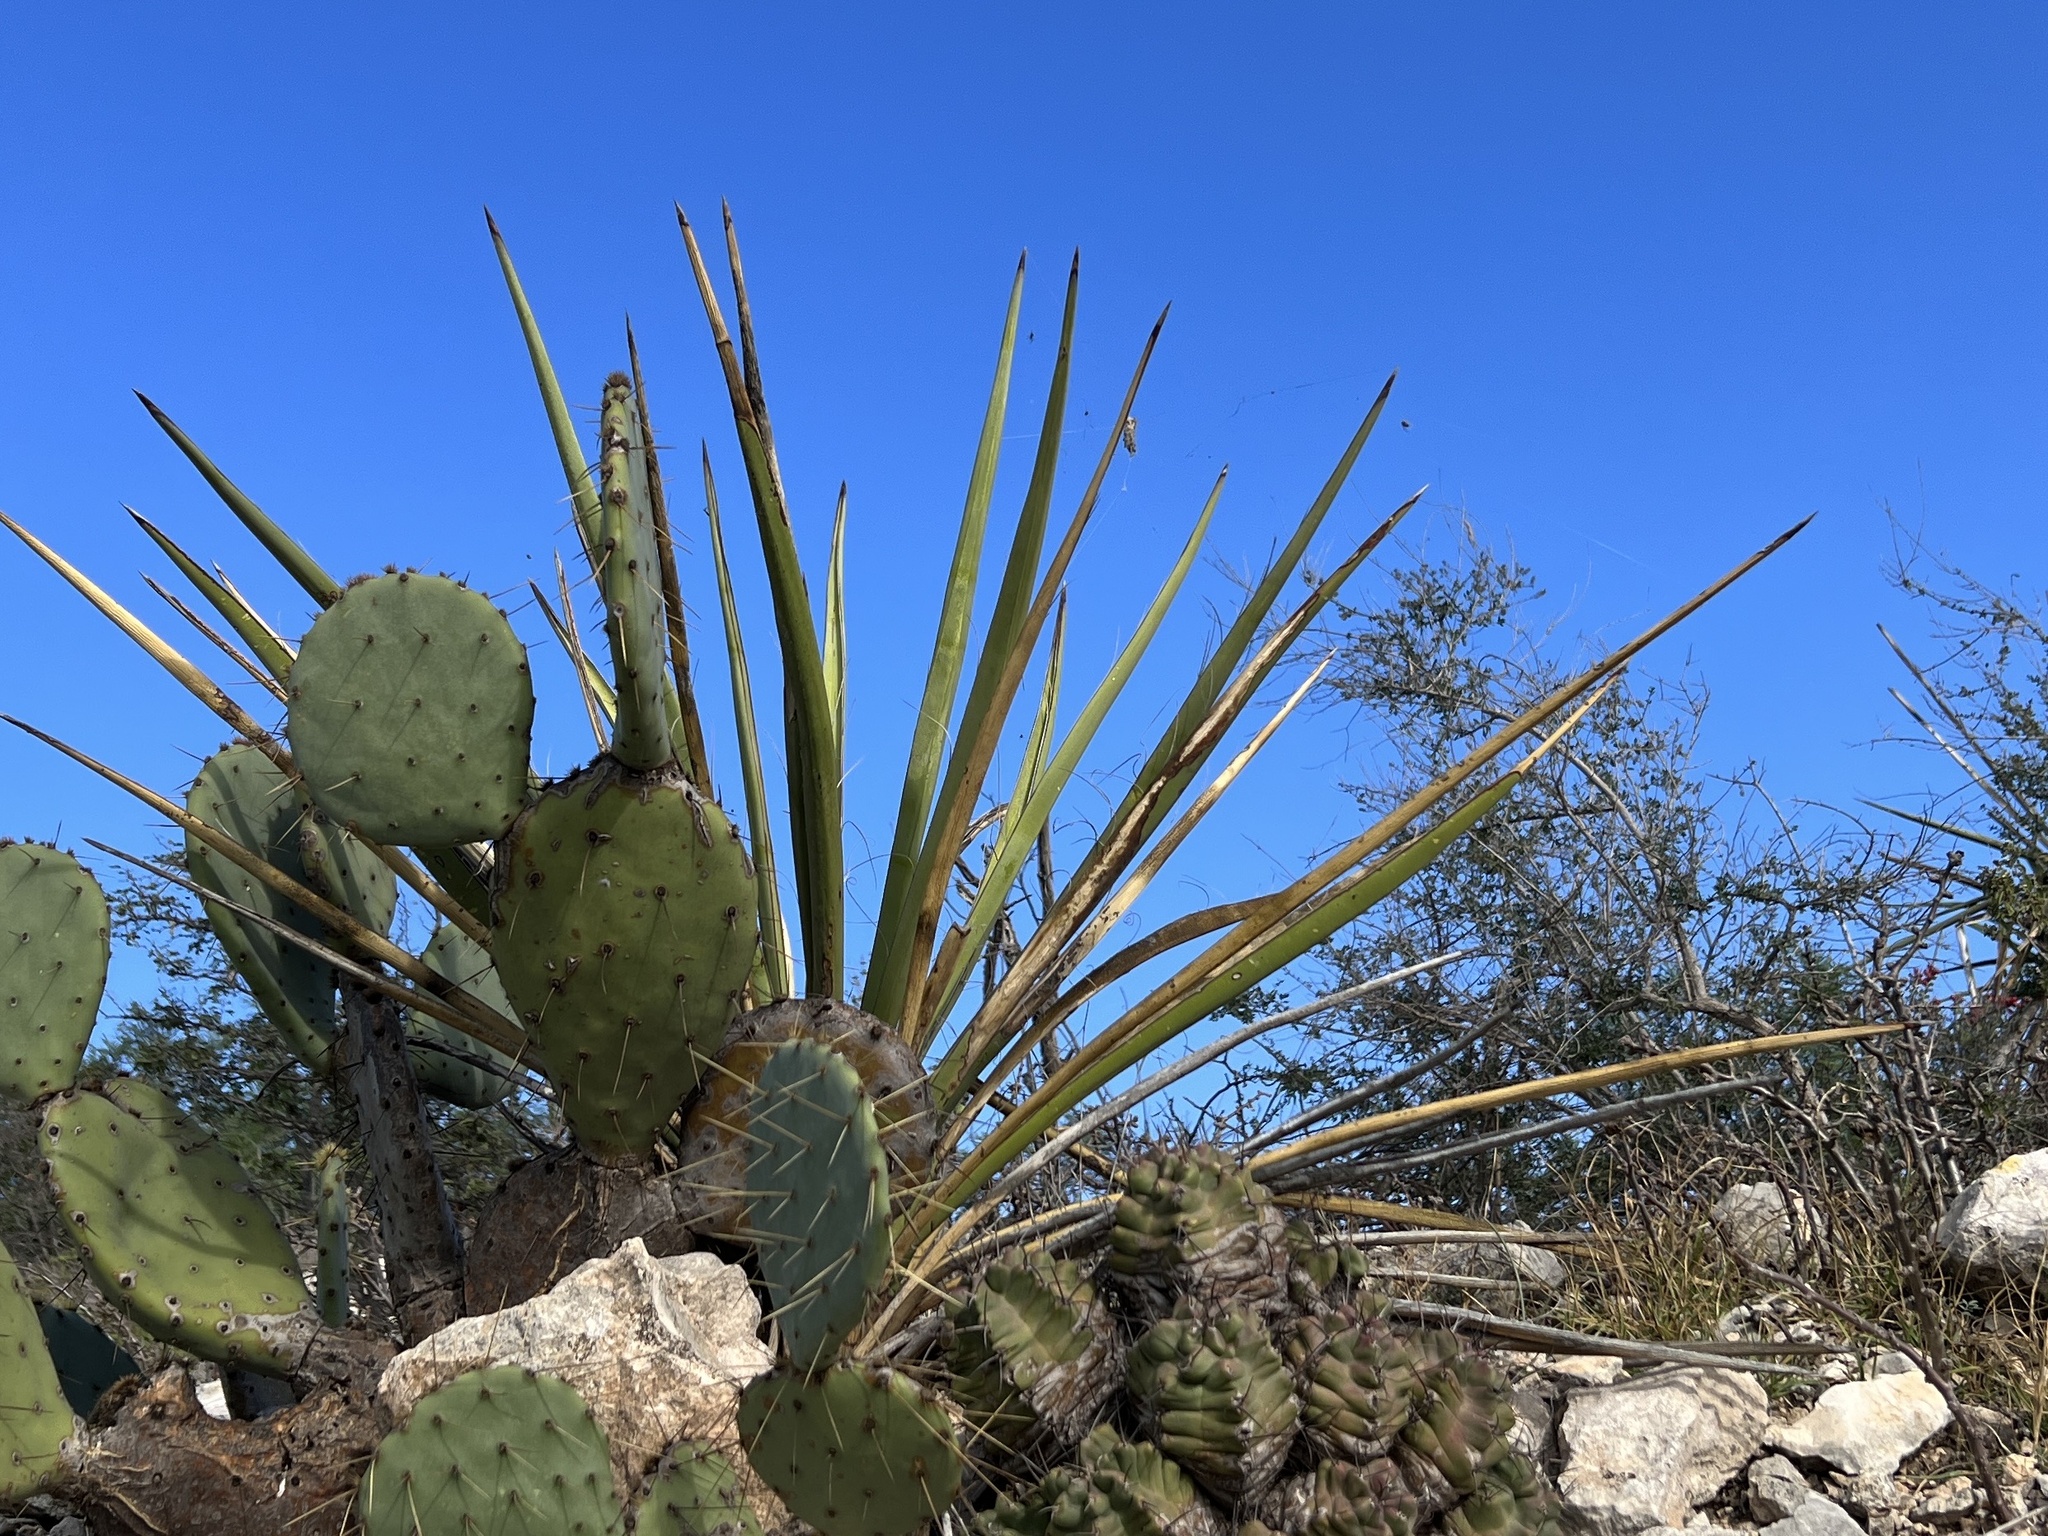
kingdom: Plantae
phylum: Tracheophyta
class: Liliopsida
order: Asparagales
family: Asparagaceae
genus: Yucca
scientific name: Yucca treculiana
